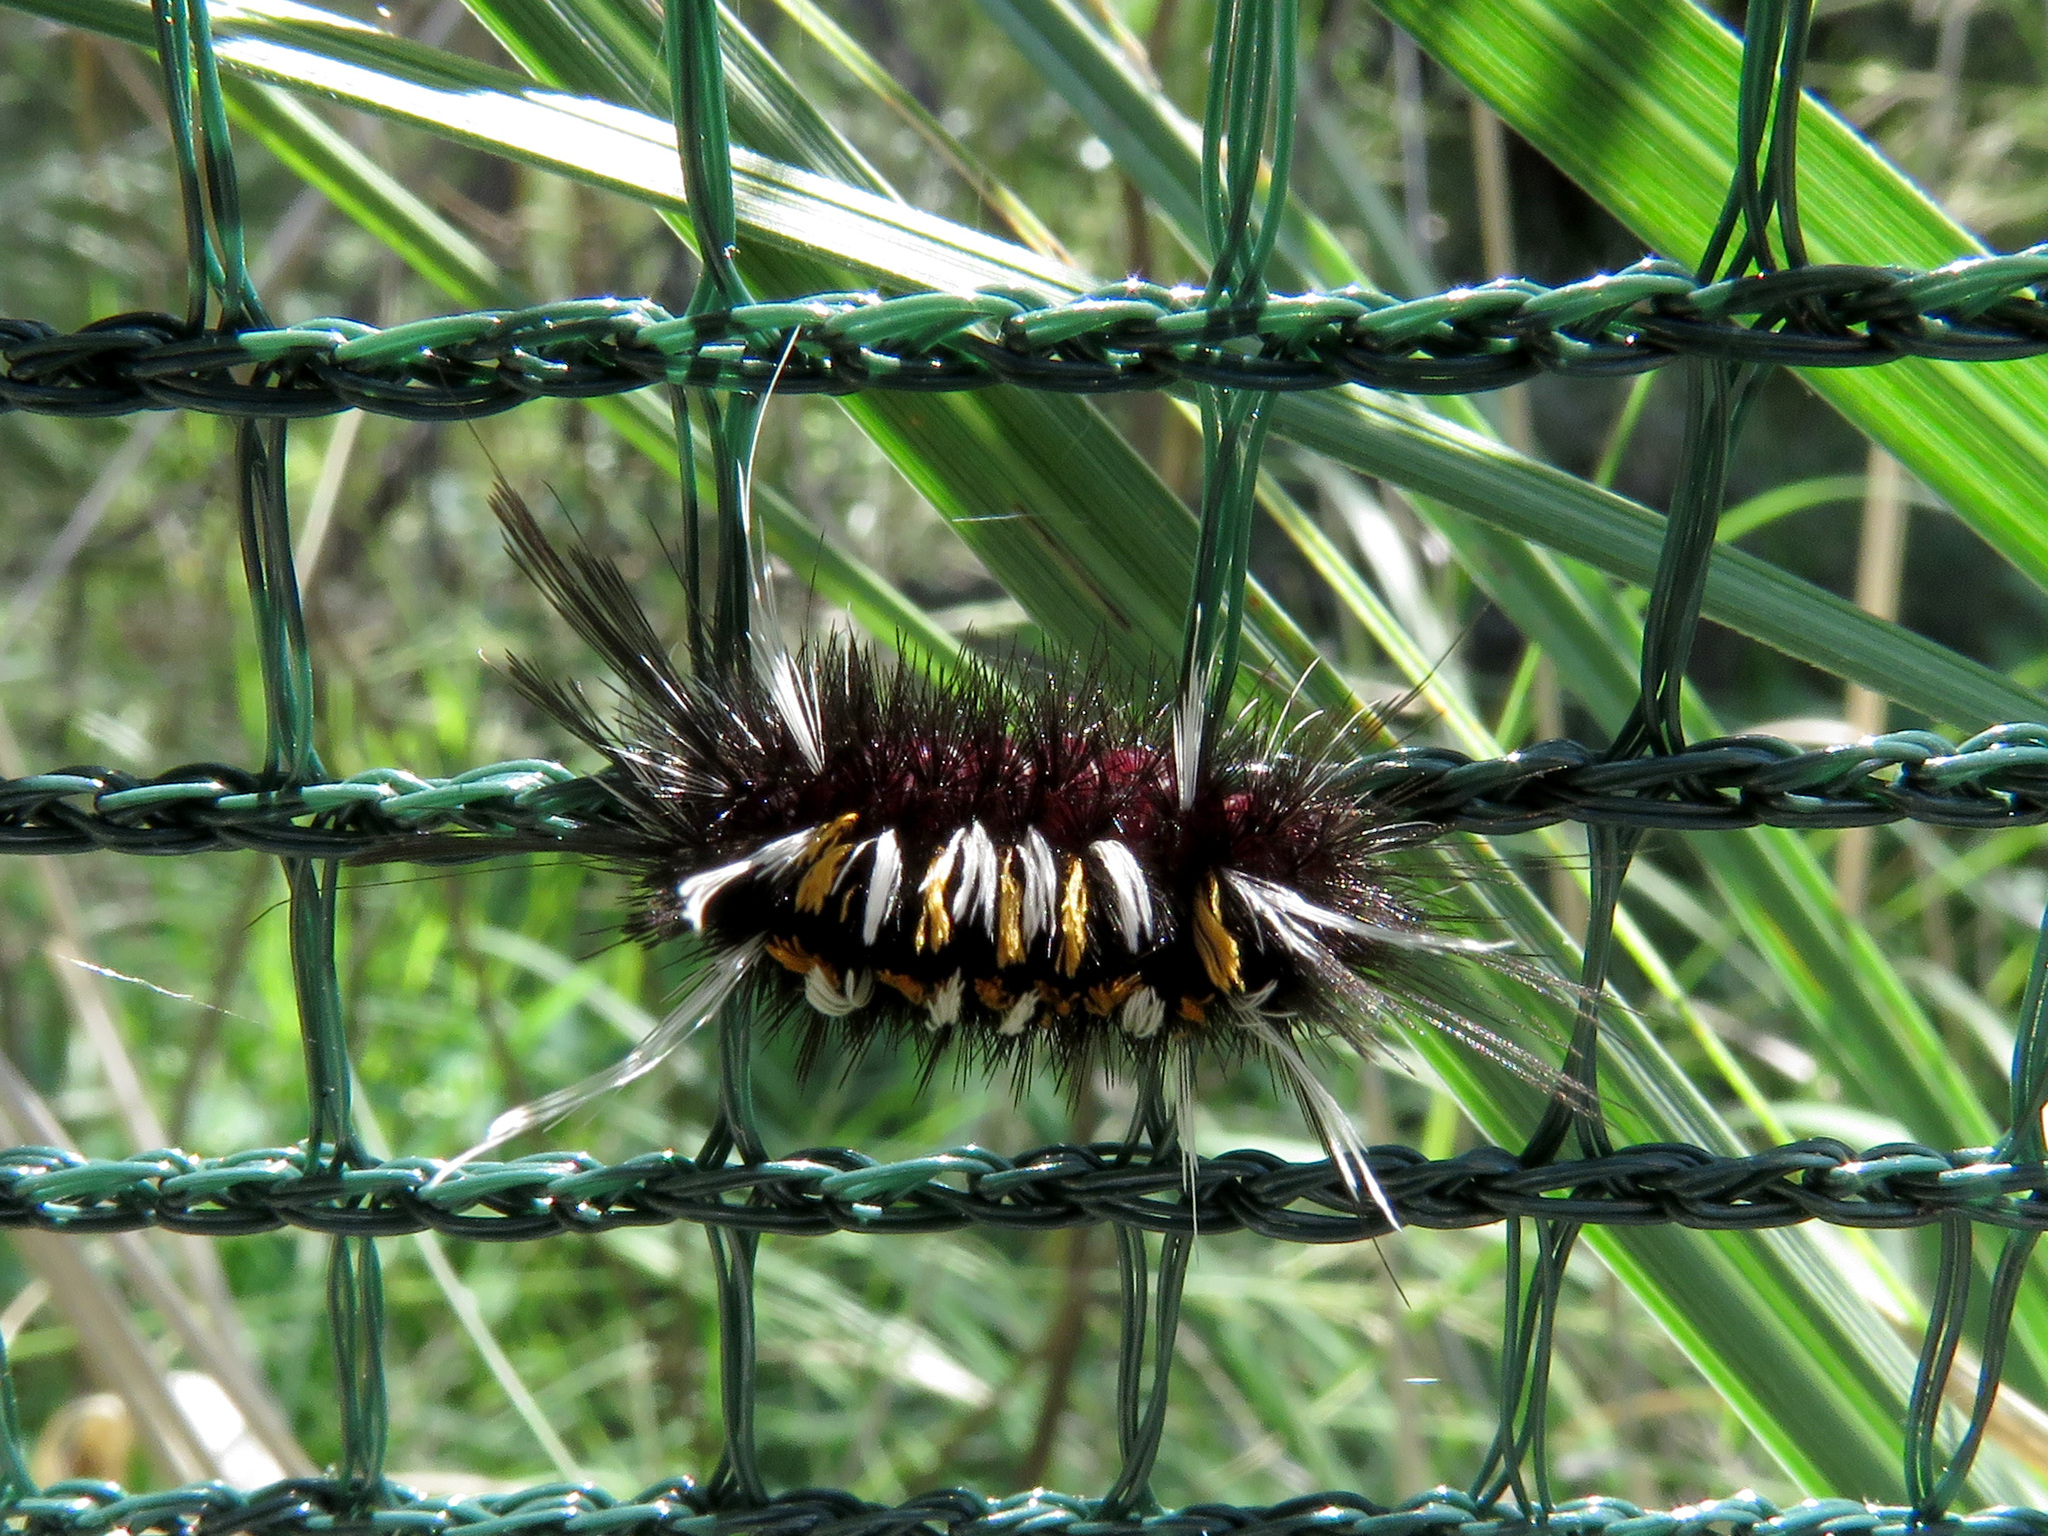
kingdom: Animalia
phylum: Arthropoda
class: Insecta
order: Lepidoptera
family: Erebidae
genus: Euchaetes
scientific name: Euchaetes
